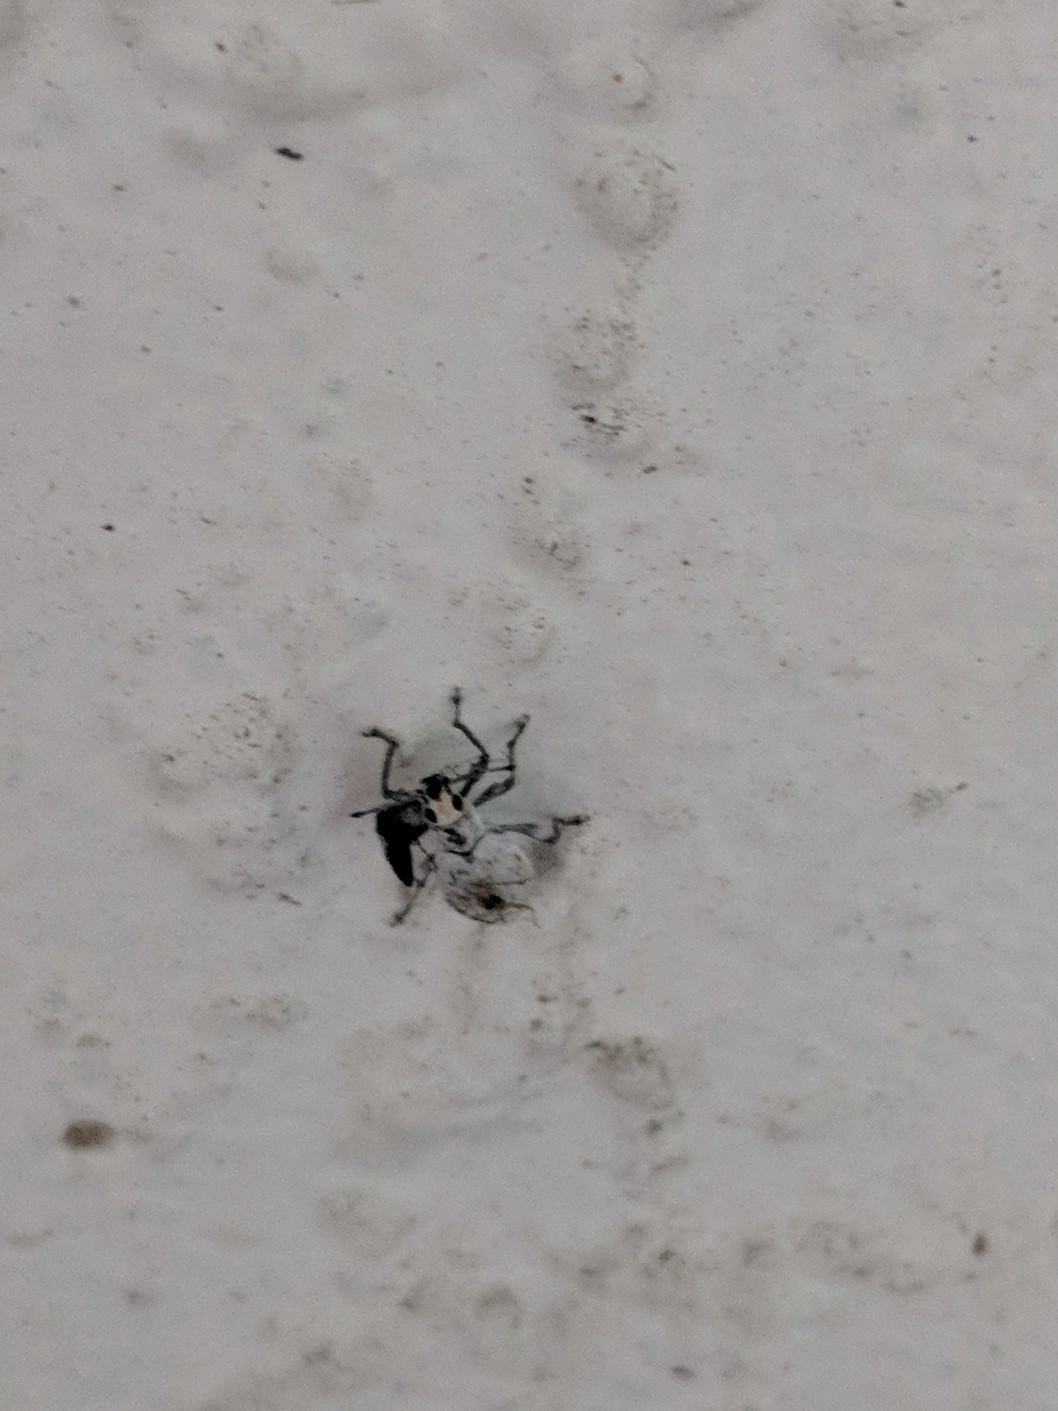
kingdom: Animalia
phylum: Arthropoda
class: Insecta
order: Coleoptera
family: Curculionidae
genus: Myllocerus
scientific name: Myllocerus undecimpustulatus
